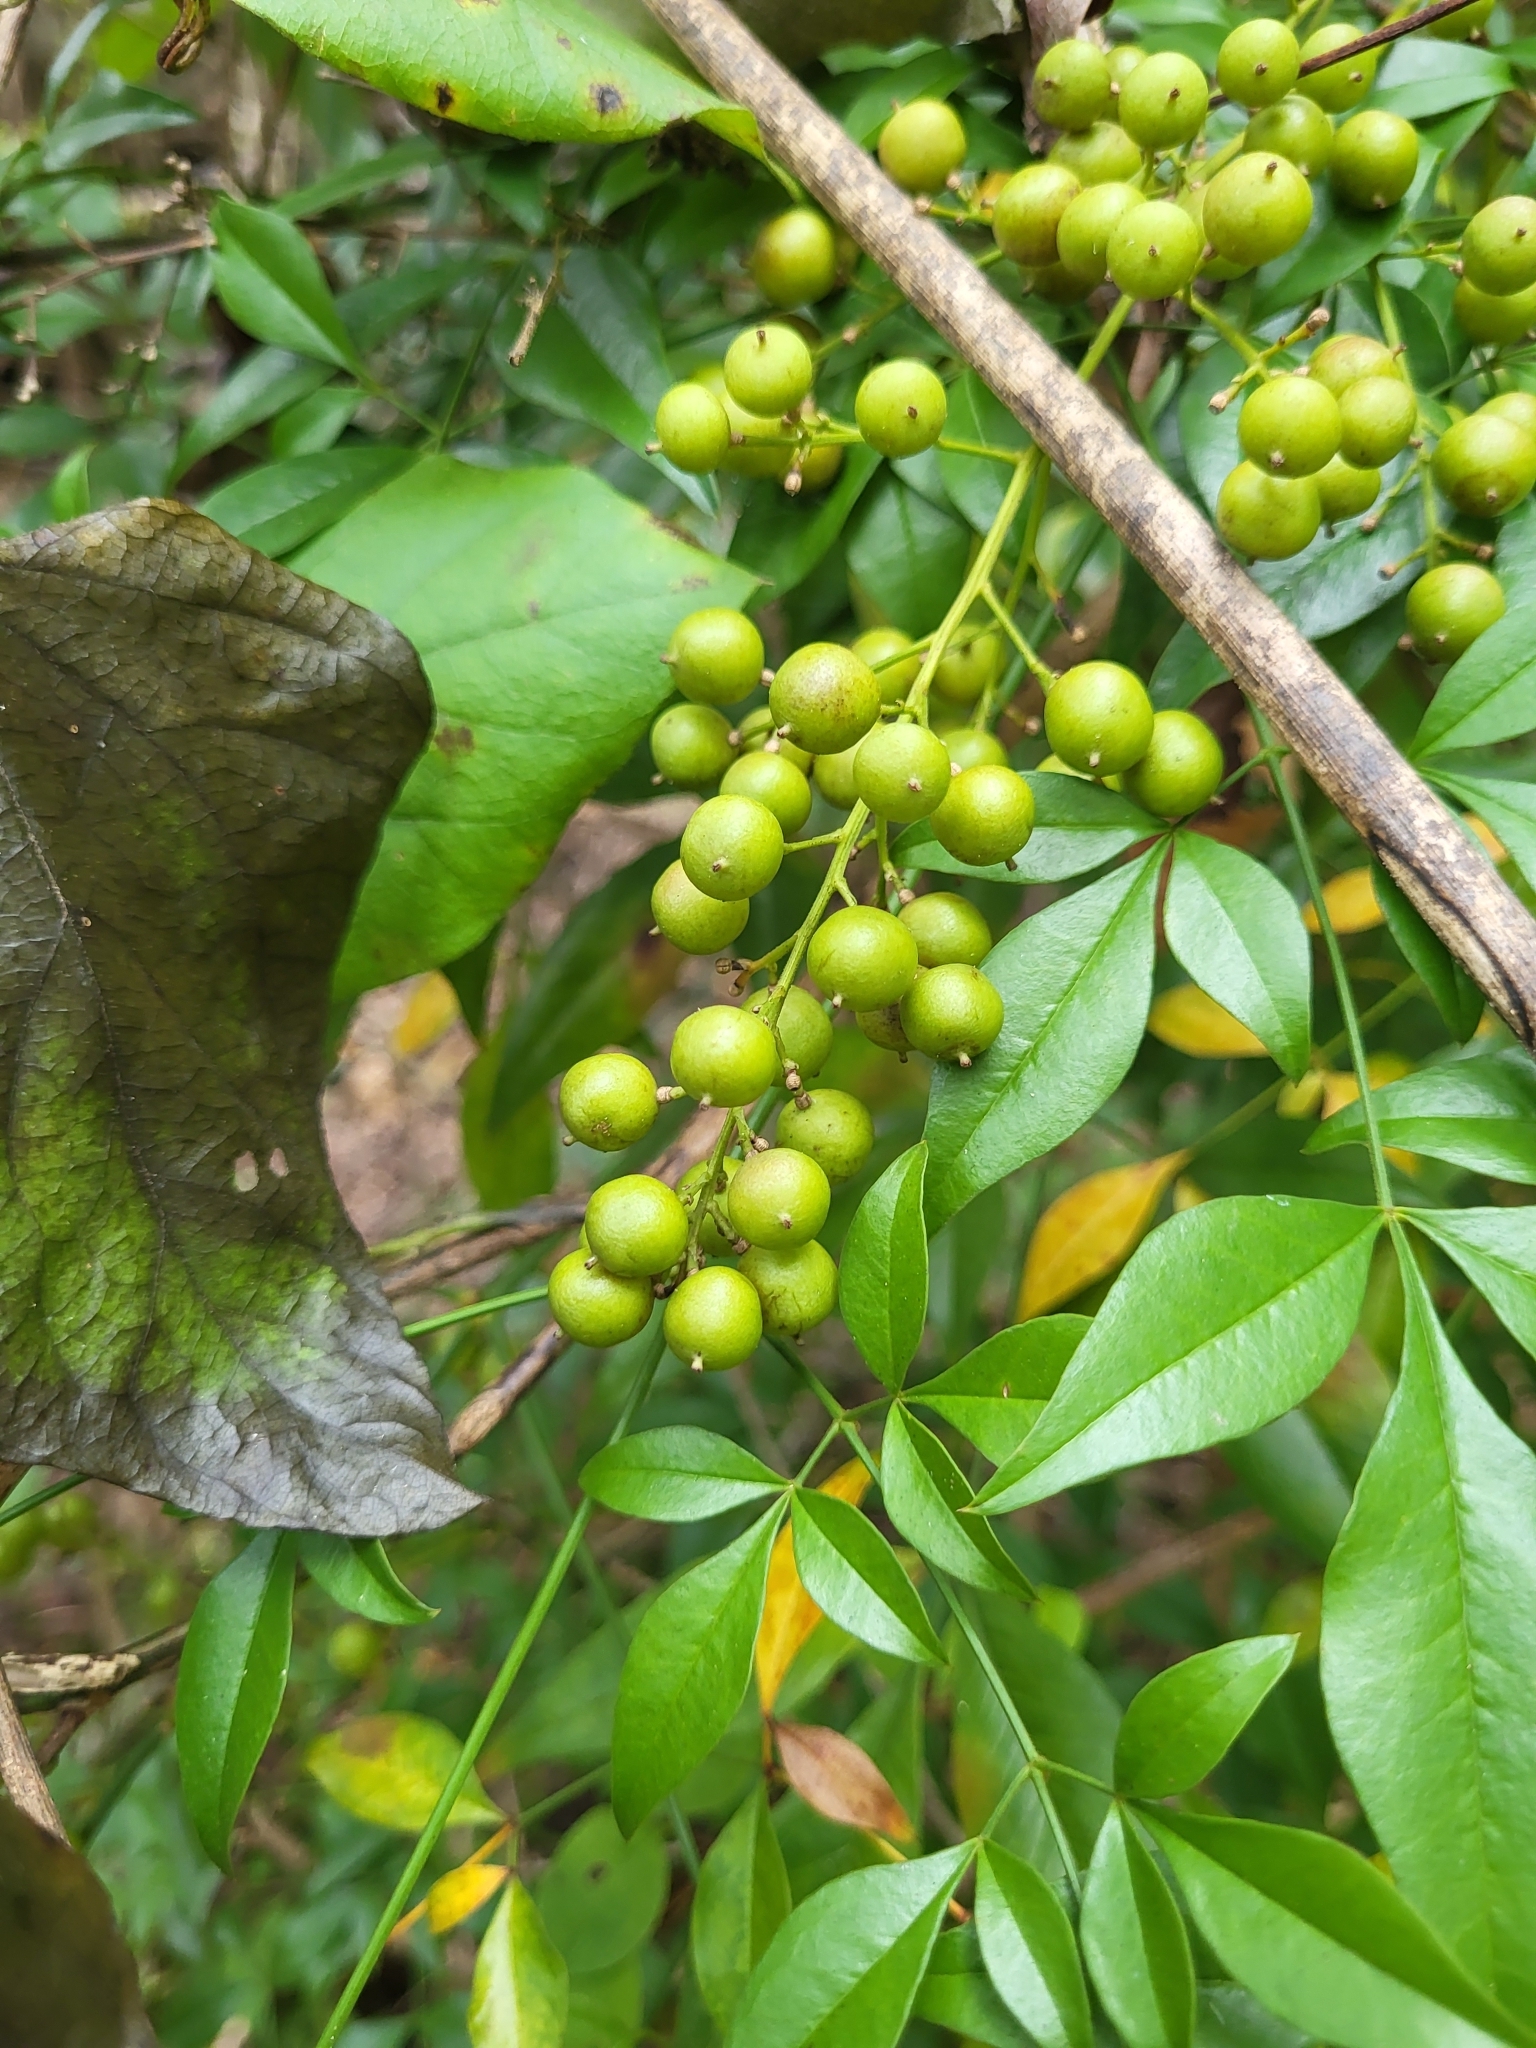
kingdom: Plantae
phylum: Tracheophyta
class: Magnoliopsida
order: Ranunculales
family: Berberidaceae
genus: Nandina
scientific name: Nandina domestica
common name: Sacred bamboo
